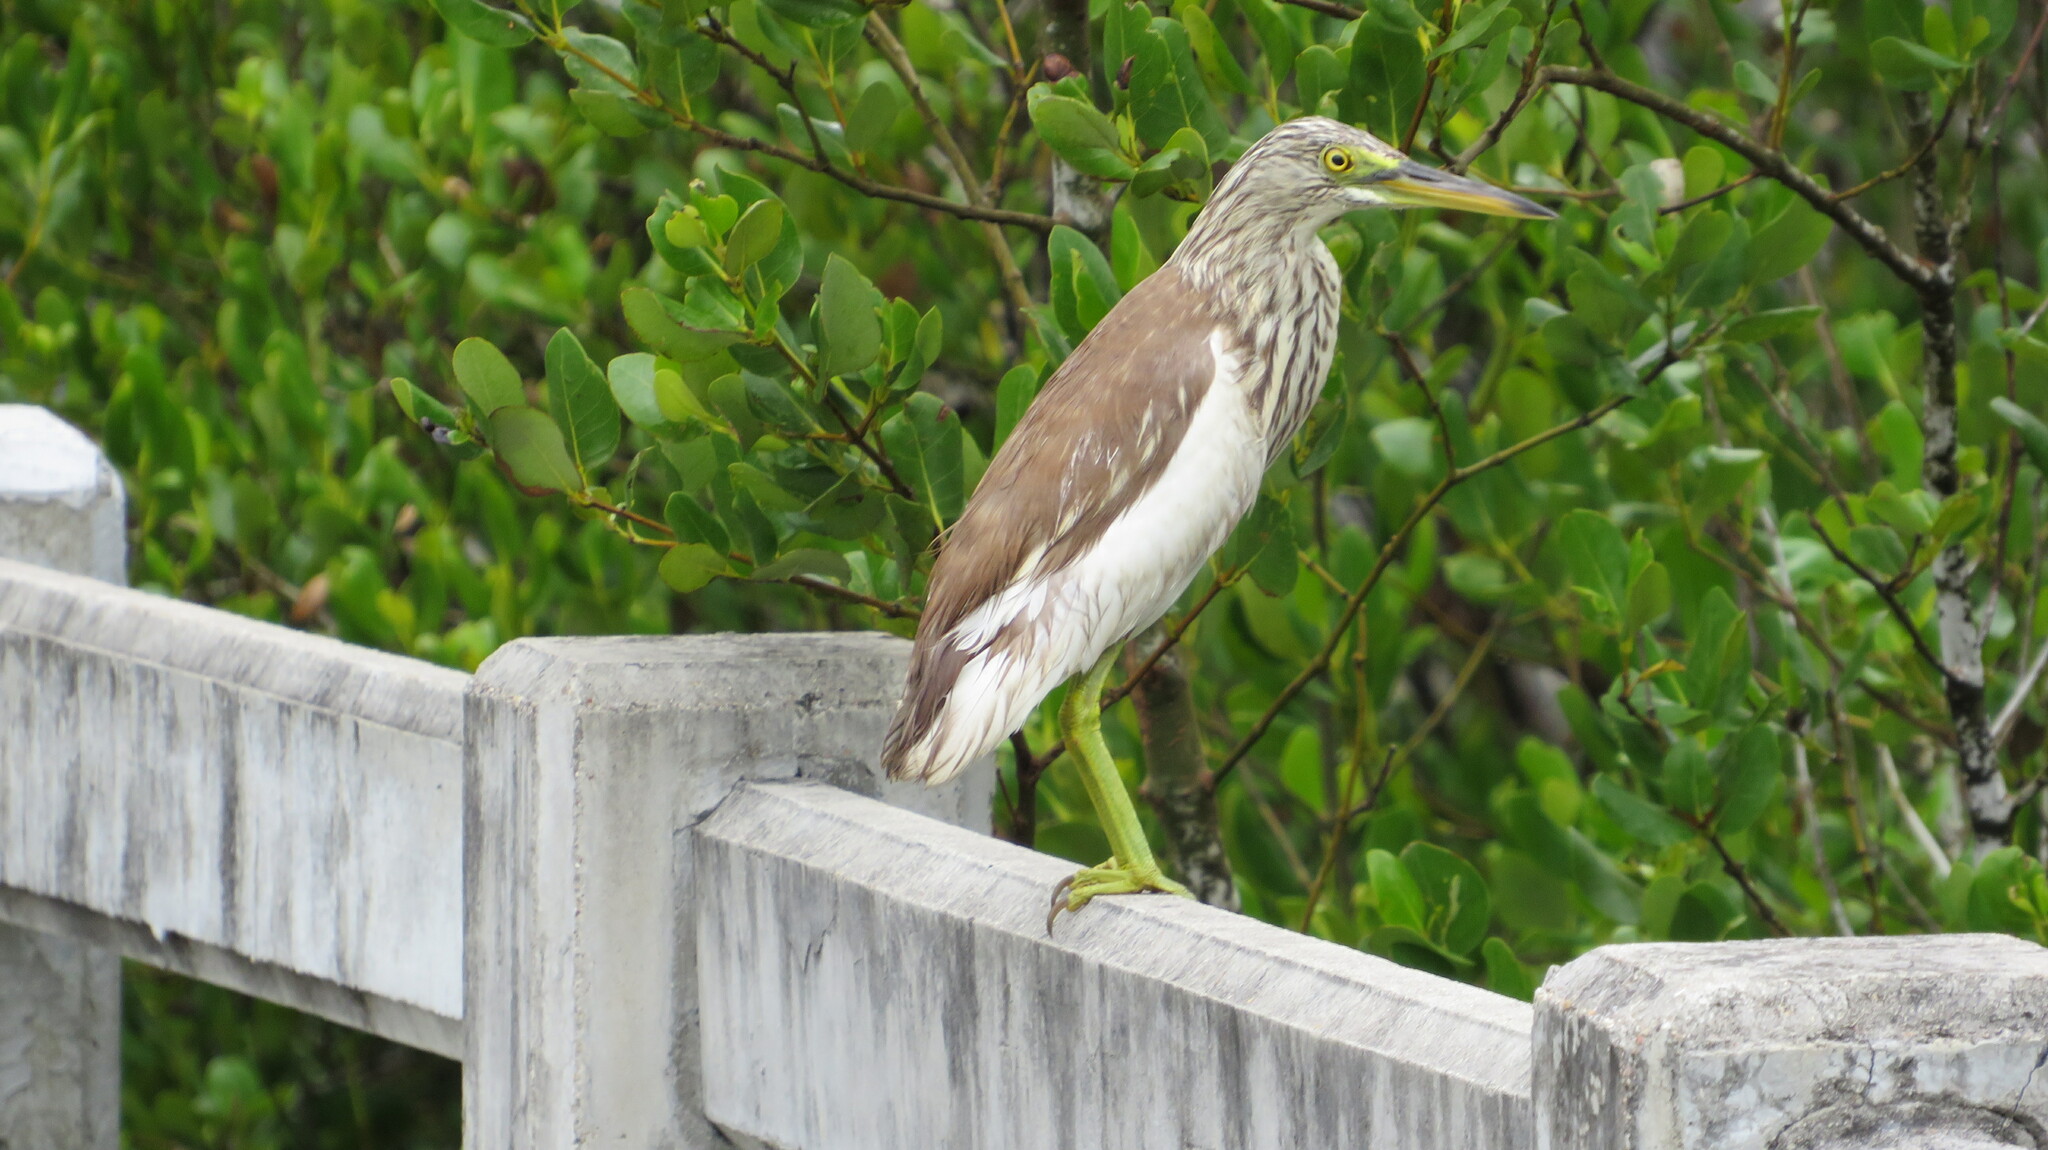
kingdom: Animalia
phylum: Chordata
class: Aves
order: Pelecaniformes
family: Ardeidae
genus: Ardeola
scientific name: Ardeola
